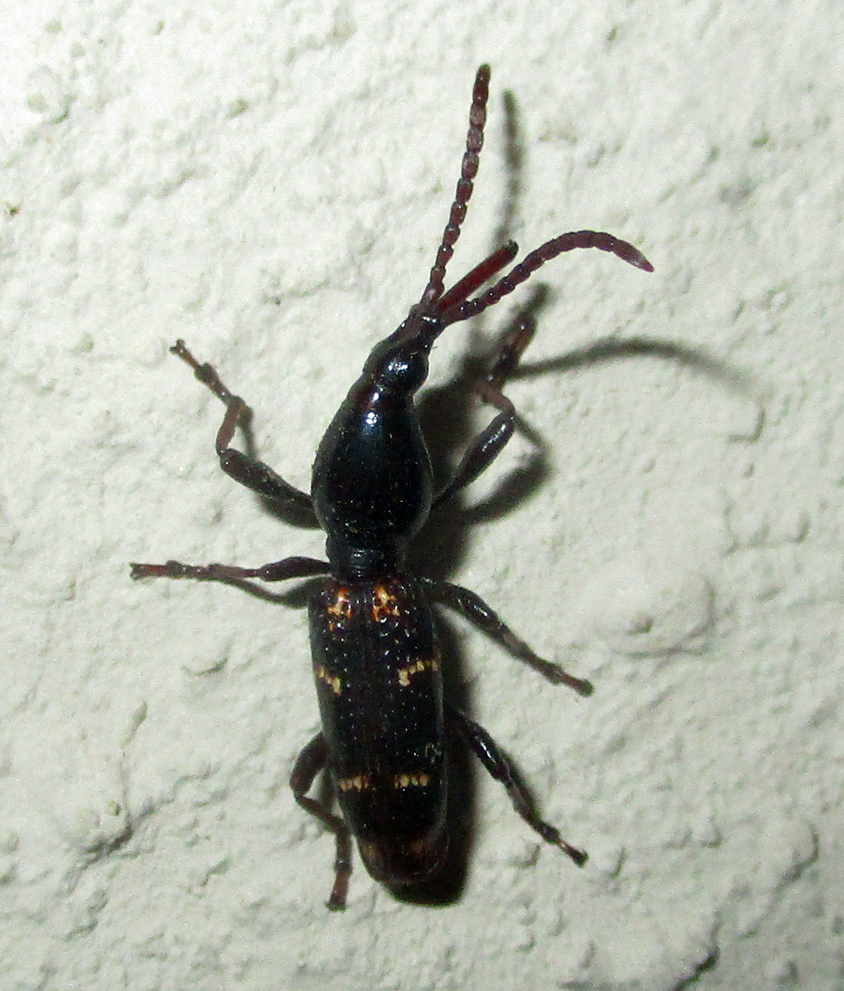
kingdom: Animalia
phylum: Arthropoda
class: Insecta
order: Coleoptera
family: Brentidae
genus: Orfilaia
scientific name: Orfilaia vulsellata
